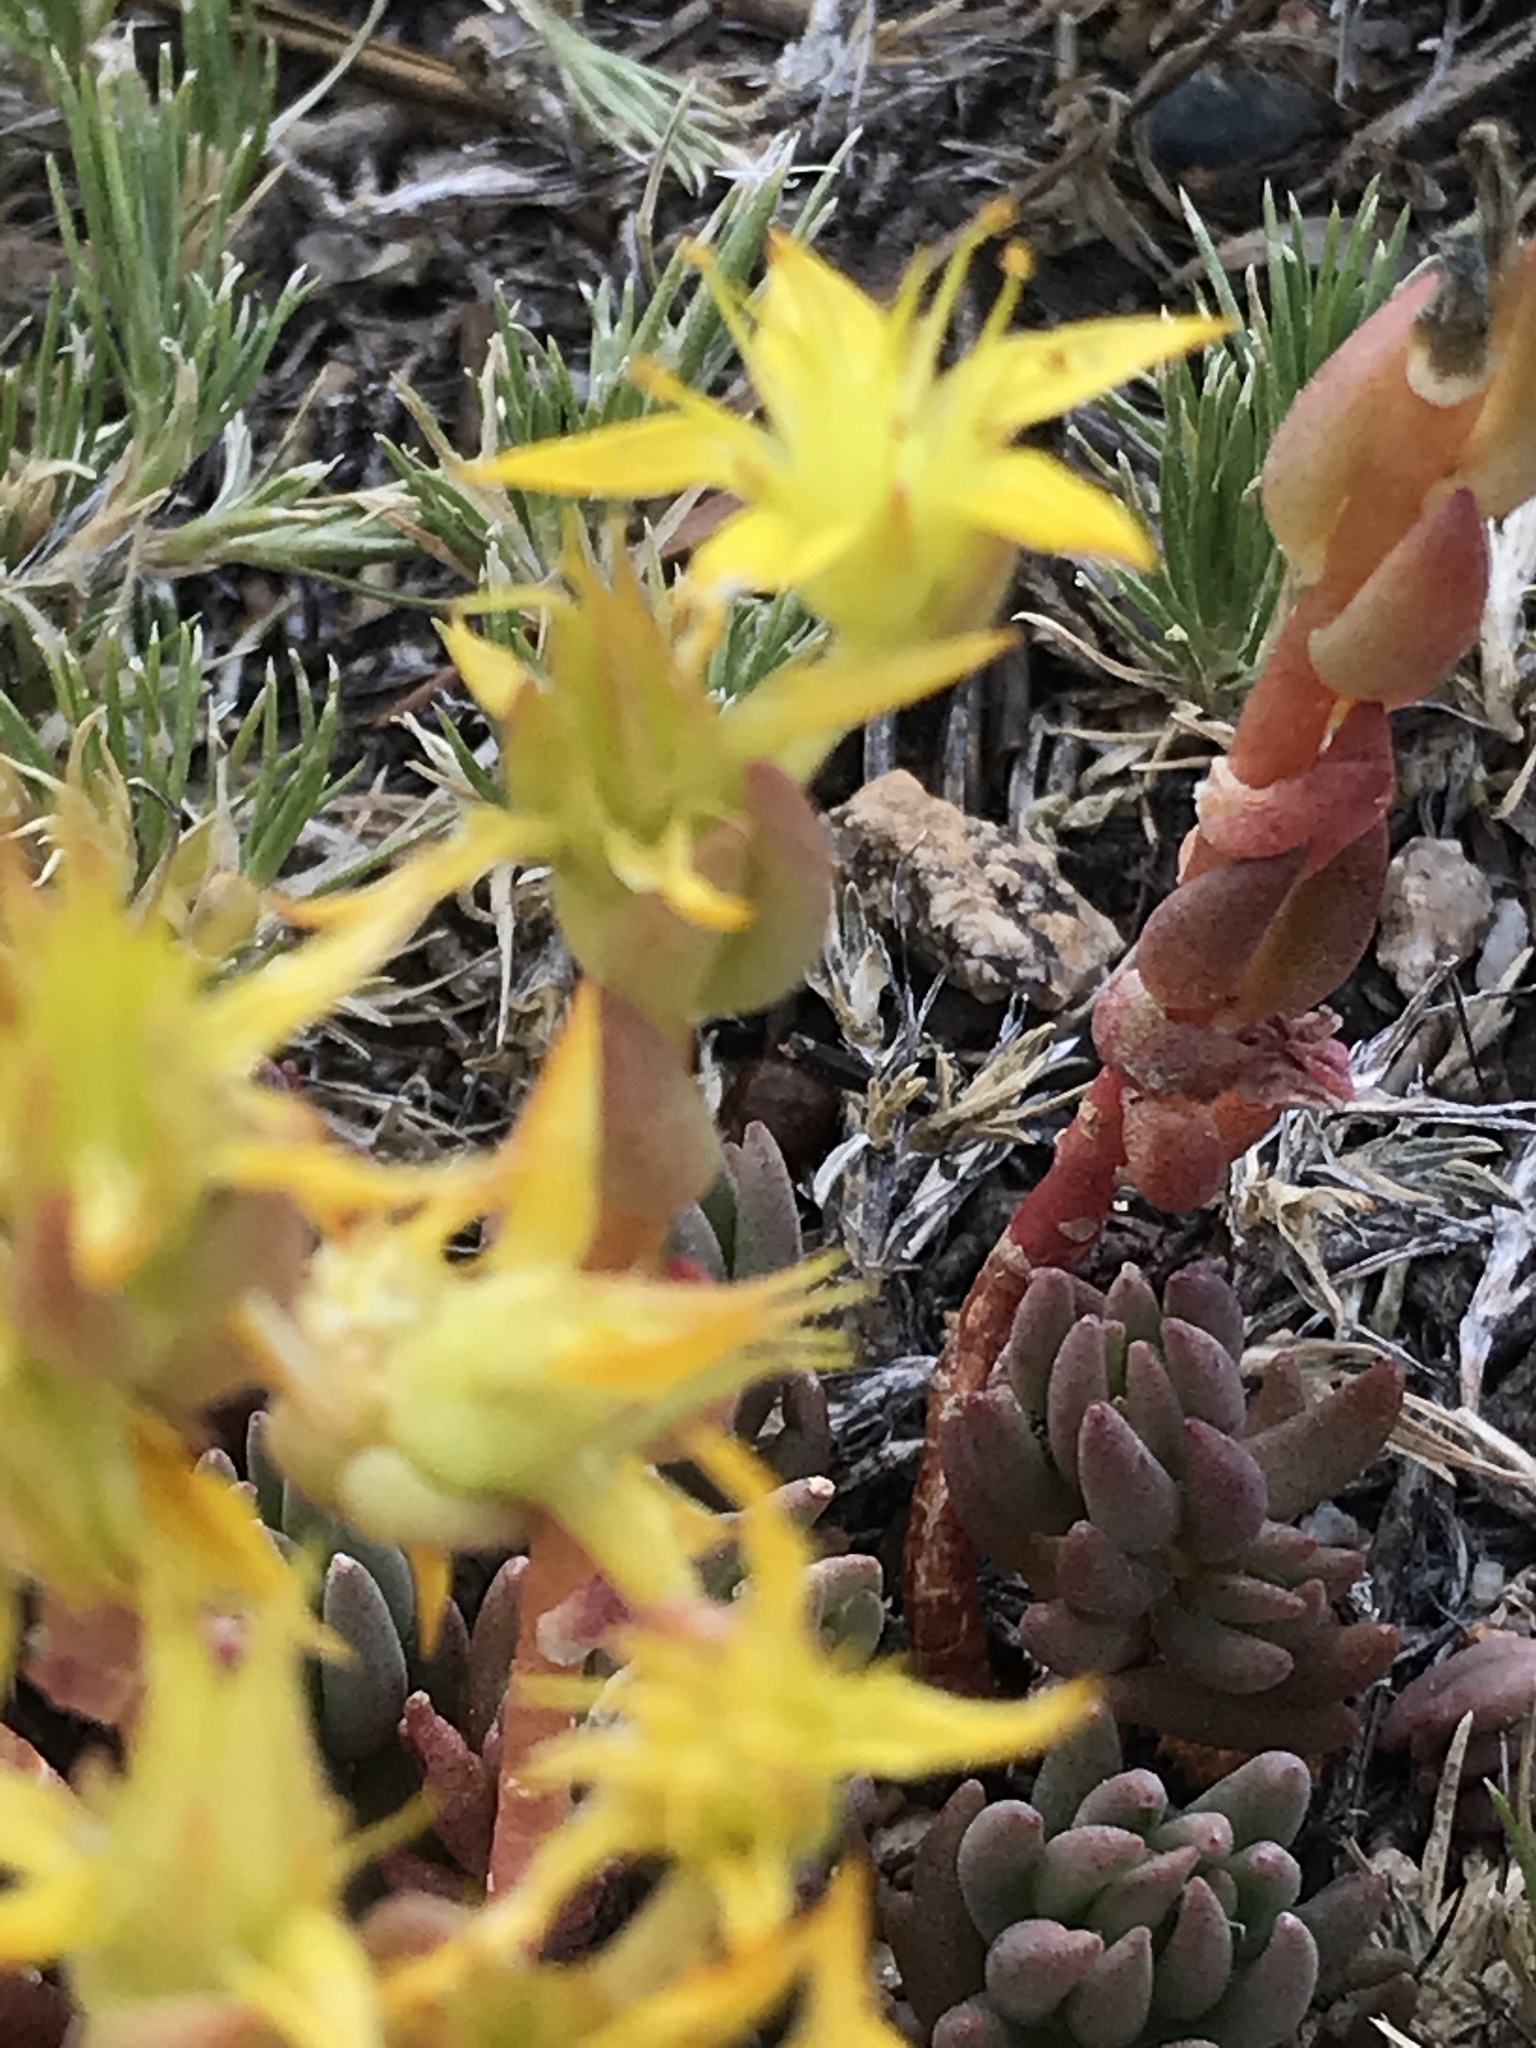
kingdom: Plantae
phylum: Tracheophyta
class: Magnoliopsida
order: Saxifragales
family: Crassulaceae
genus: Sedum
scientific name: Sedum lanceolatum
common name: Common stonecrop
